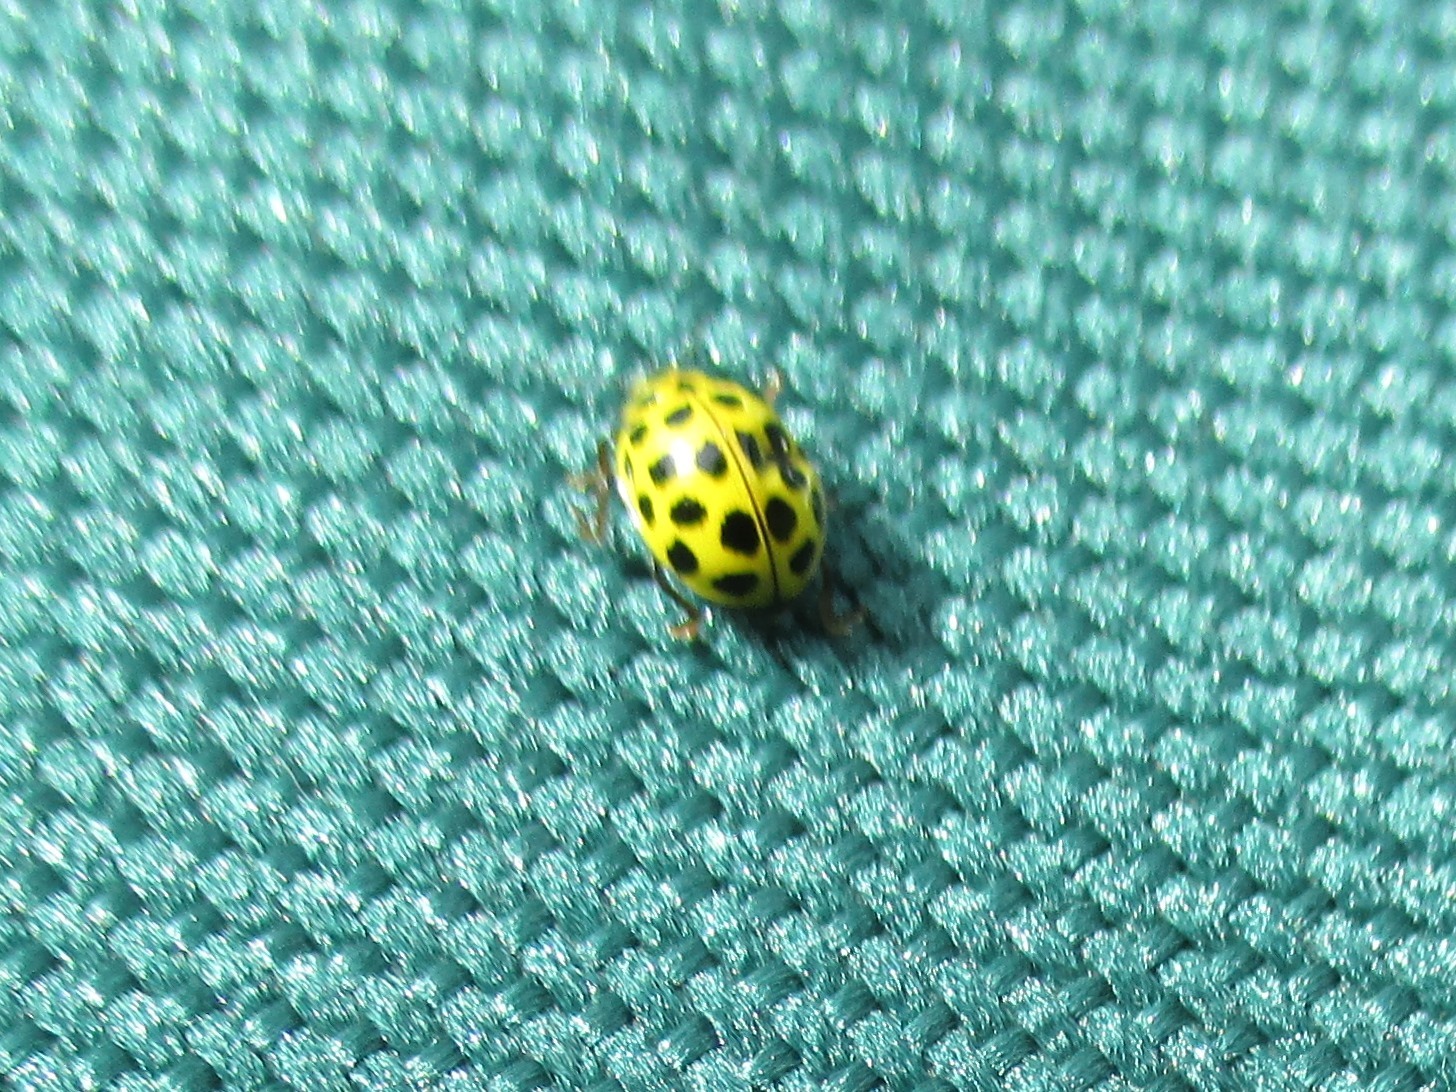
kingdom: Animalia
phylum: Arthropoda
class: Insecta
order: Coleoptera
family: Coccinellidae
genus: Psyllobora
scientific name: Psyllobora vigintiduopunctata
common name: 22-spot ladybird
